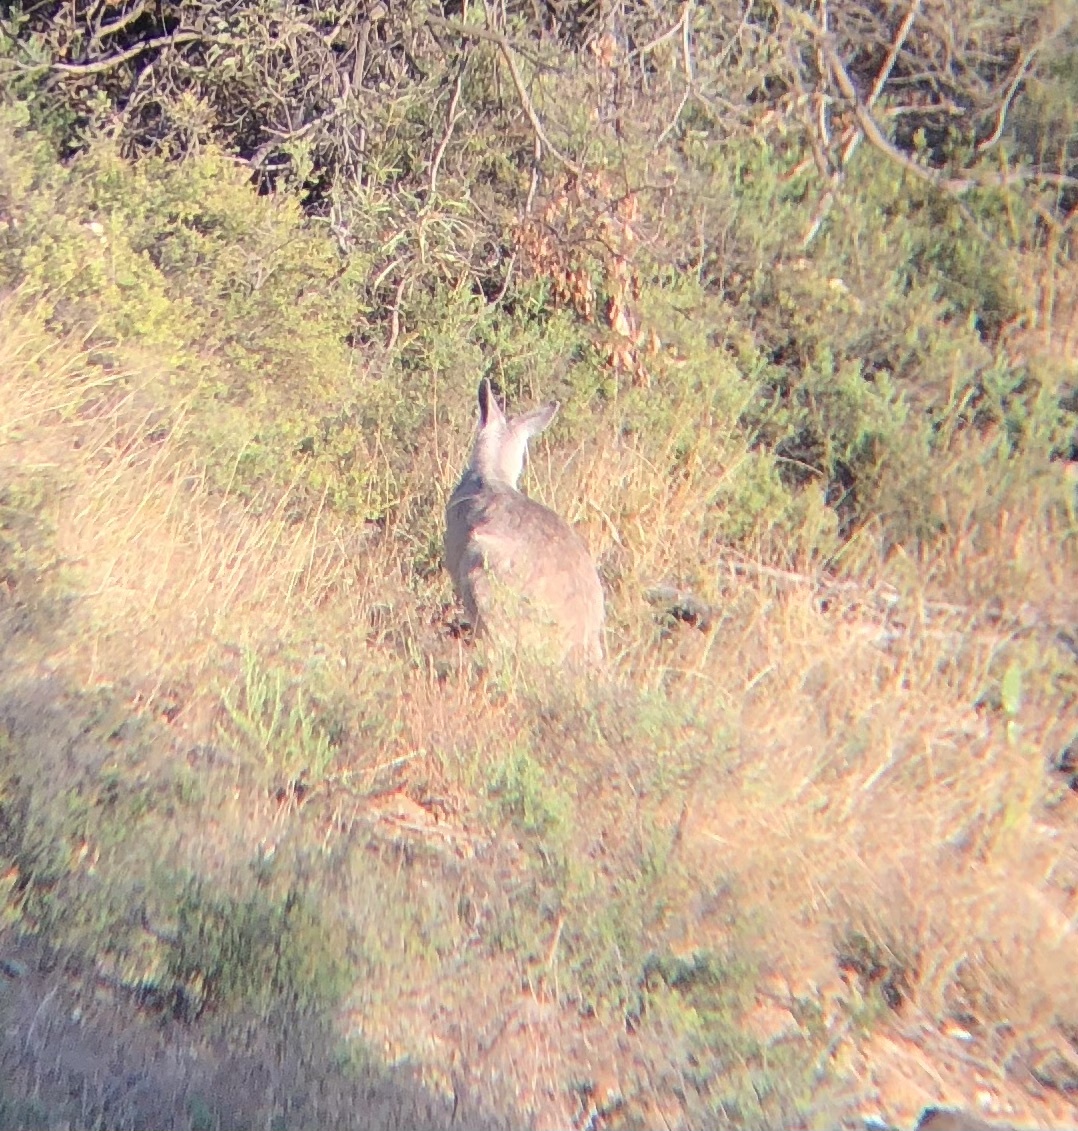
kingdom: Animalia
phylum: Chordata
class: Mammalia
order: Diprotodontia
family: Macropodidae
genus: Macropus
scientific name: Macropus robustus
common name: Eastern wallaroo
